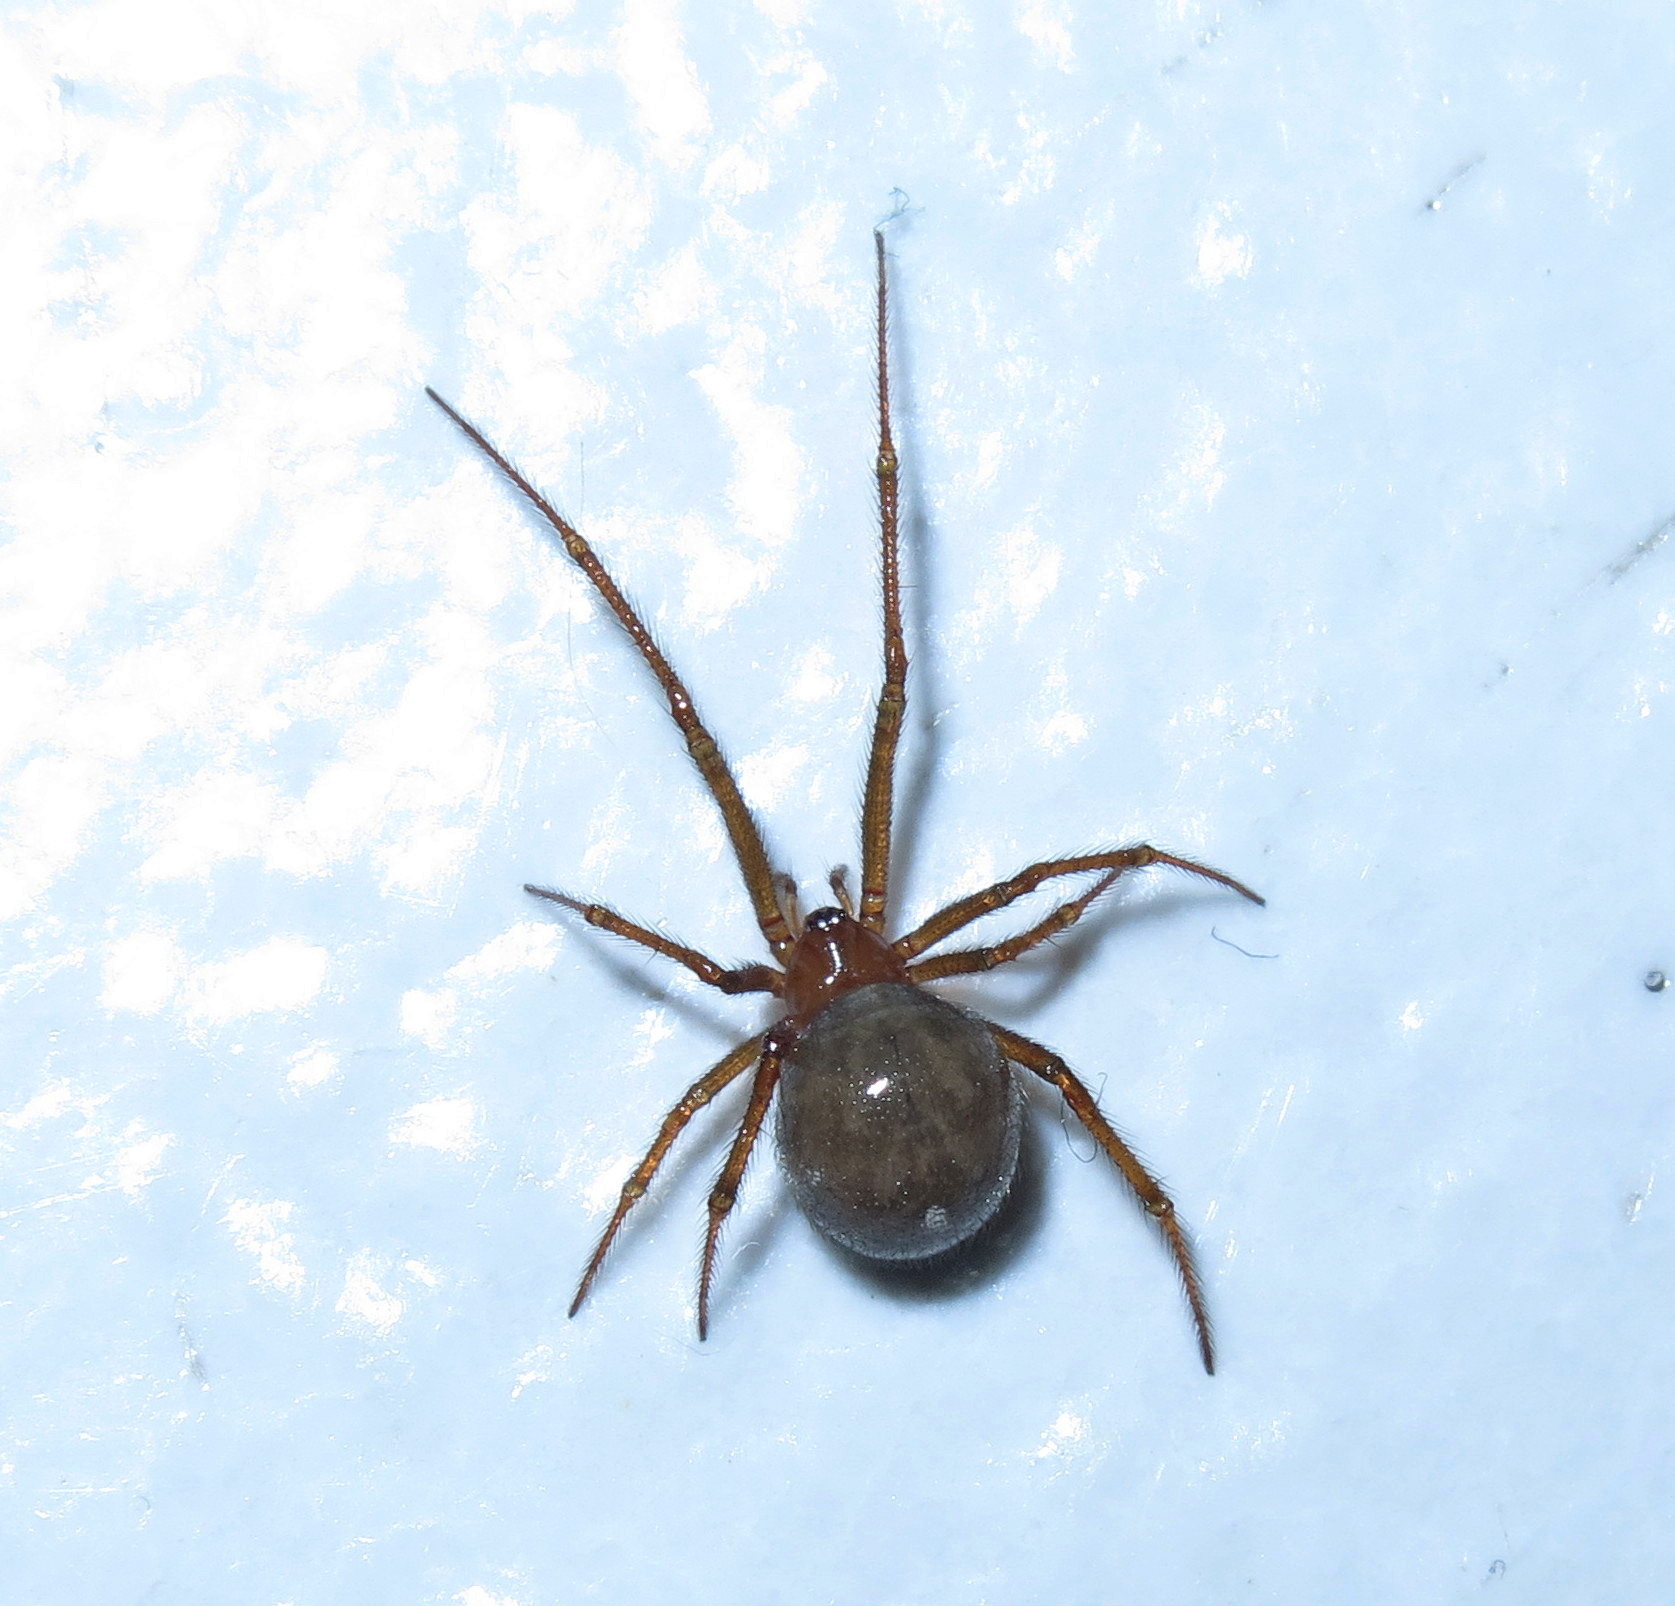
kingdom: Animalia
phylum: Arthropoda
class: Arachnida
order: Araneae
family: Theridiidae
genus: Nesticodes
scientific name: Nesticodes rufipes
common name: Cobweb spiders
